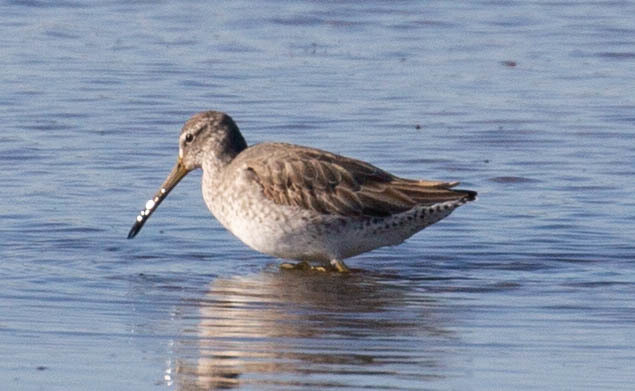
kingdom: Animalia
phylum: Chordata
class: Aves
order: Charadriiformes
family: Scolopacidae
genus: Limnodromus
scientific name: Limnodromus griseus
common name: Short-billed dowitcher
